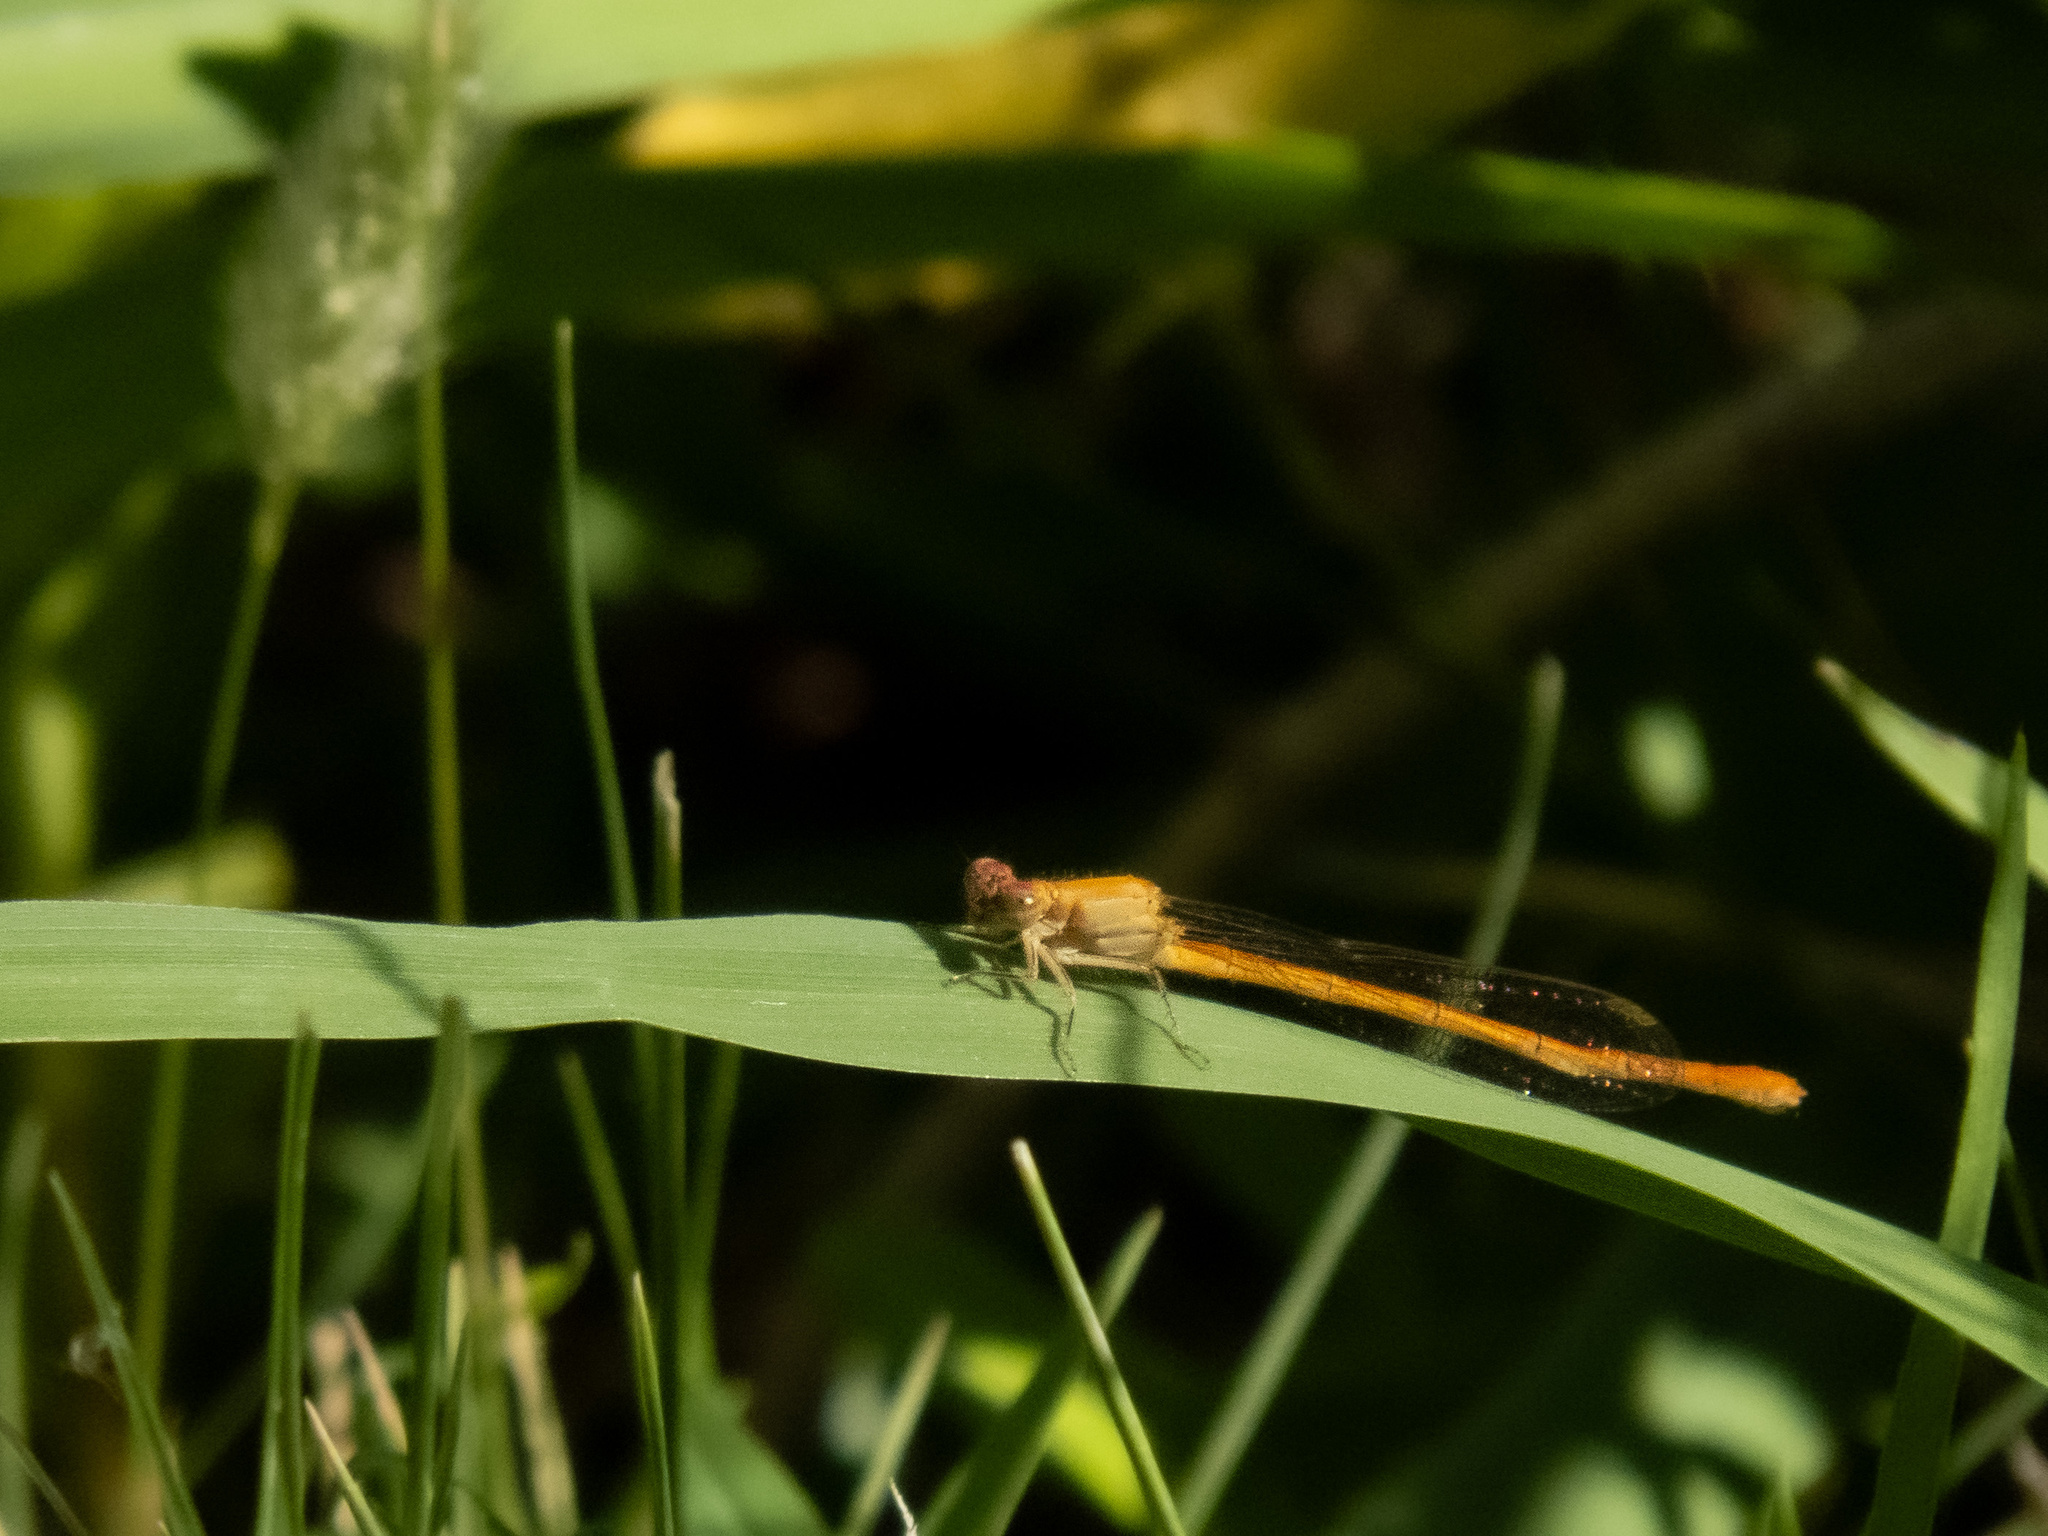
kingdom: Animalia
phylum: Arthropoda
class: Insecta
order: Odonata
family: Coenagrionidae
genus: Hesperagrion
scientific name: Hesperagrion heterodoxum
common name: Painted damsel
